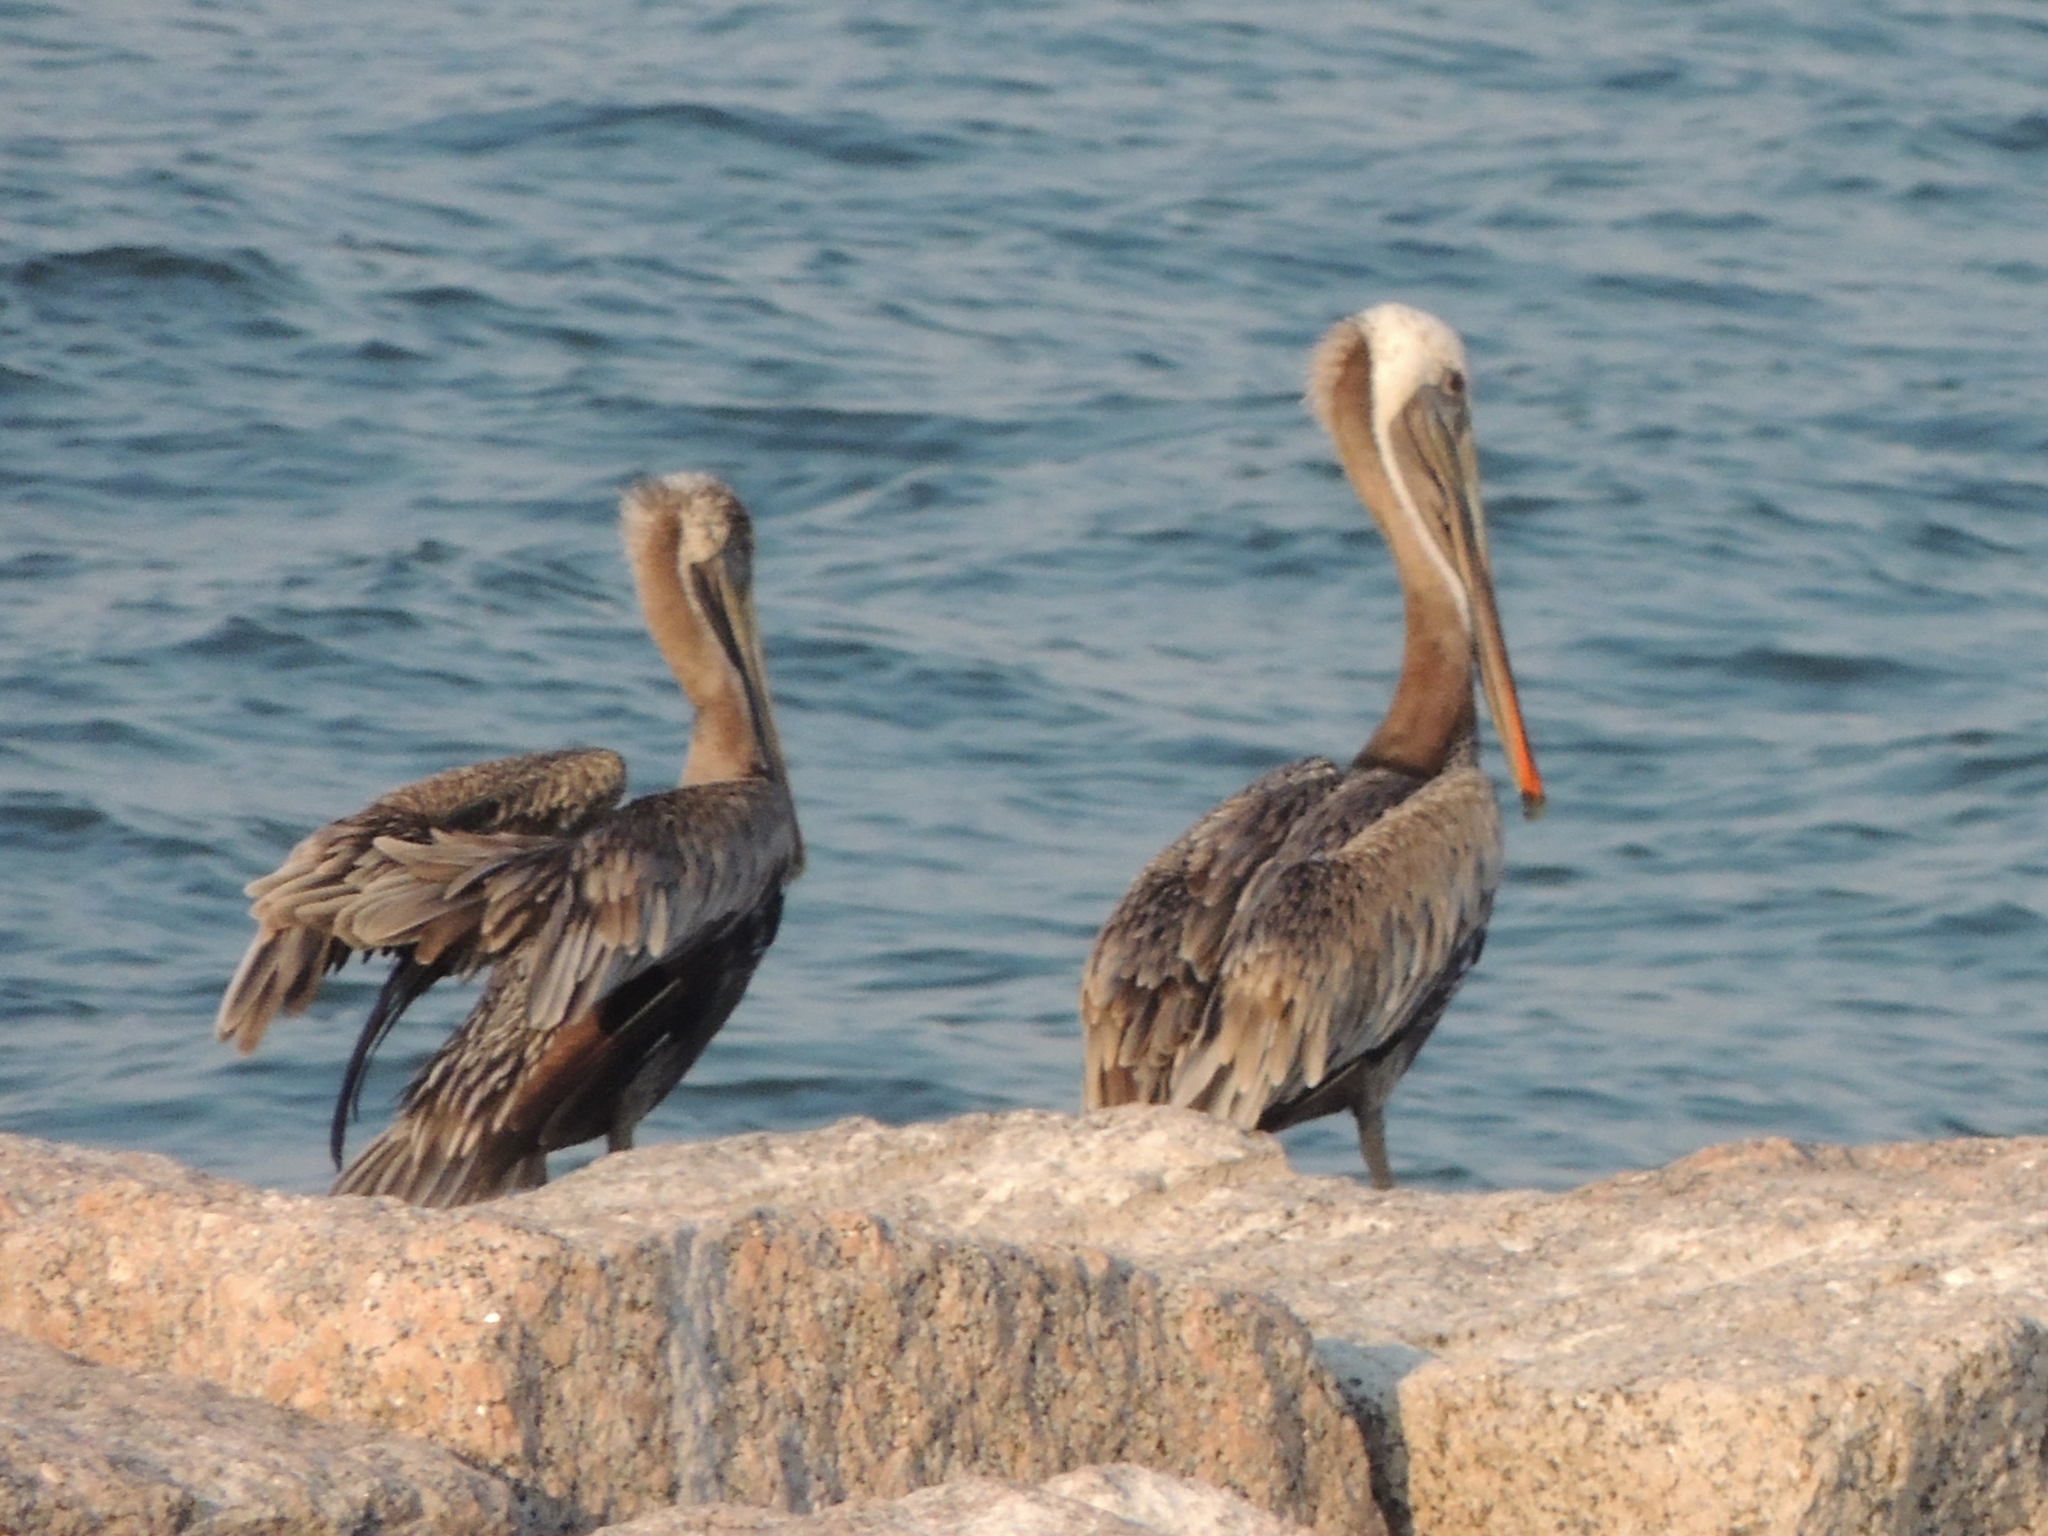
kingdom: Animalia
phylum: Chordata
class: Aves
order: Pelecaniformes
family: Pelecanidae
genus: Pelecanus
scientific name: Pelecanus occidentalis
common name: Brown pelican
